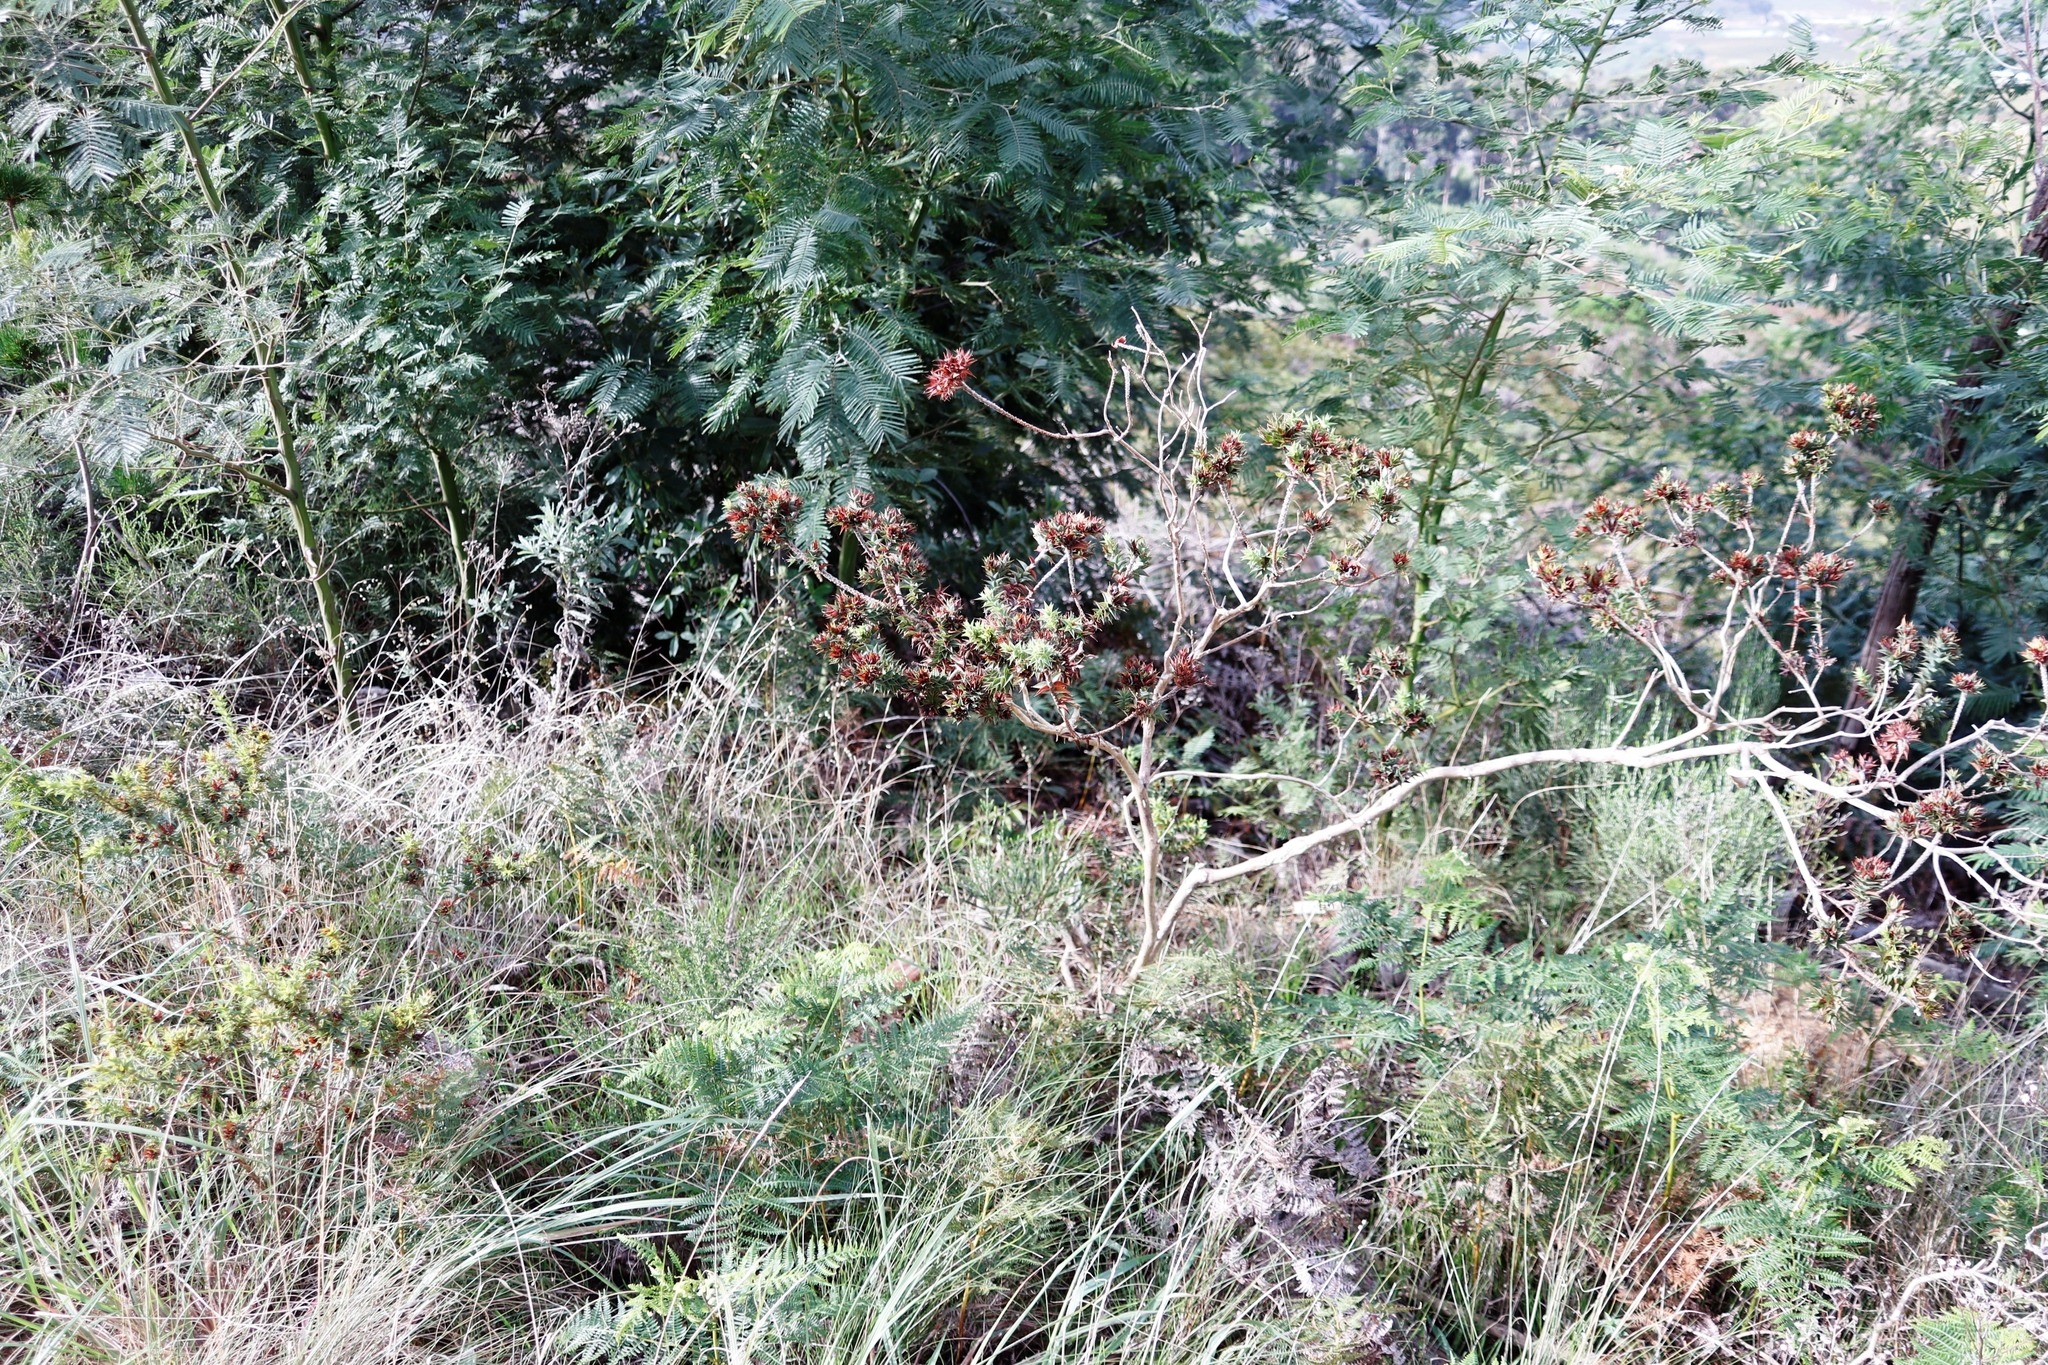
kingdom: Plantae
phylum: Tracheophyta
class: Magnoliopsida
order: Fabales
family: Fabaceae
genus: Aspalathus
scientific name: Aspalathus cordata
